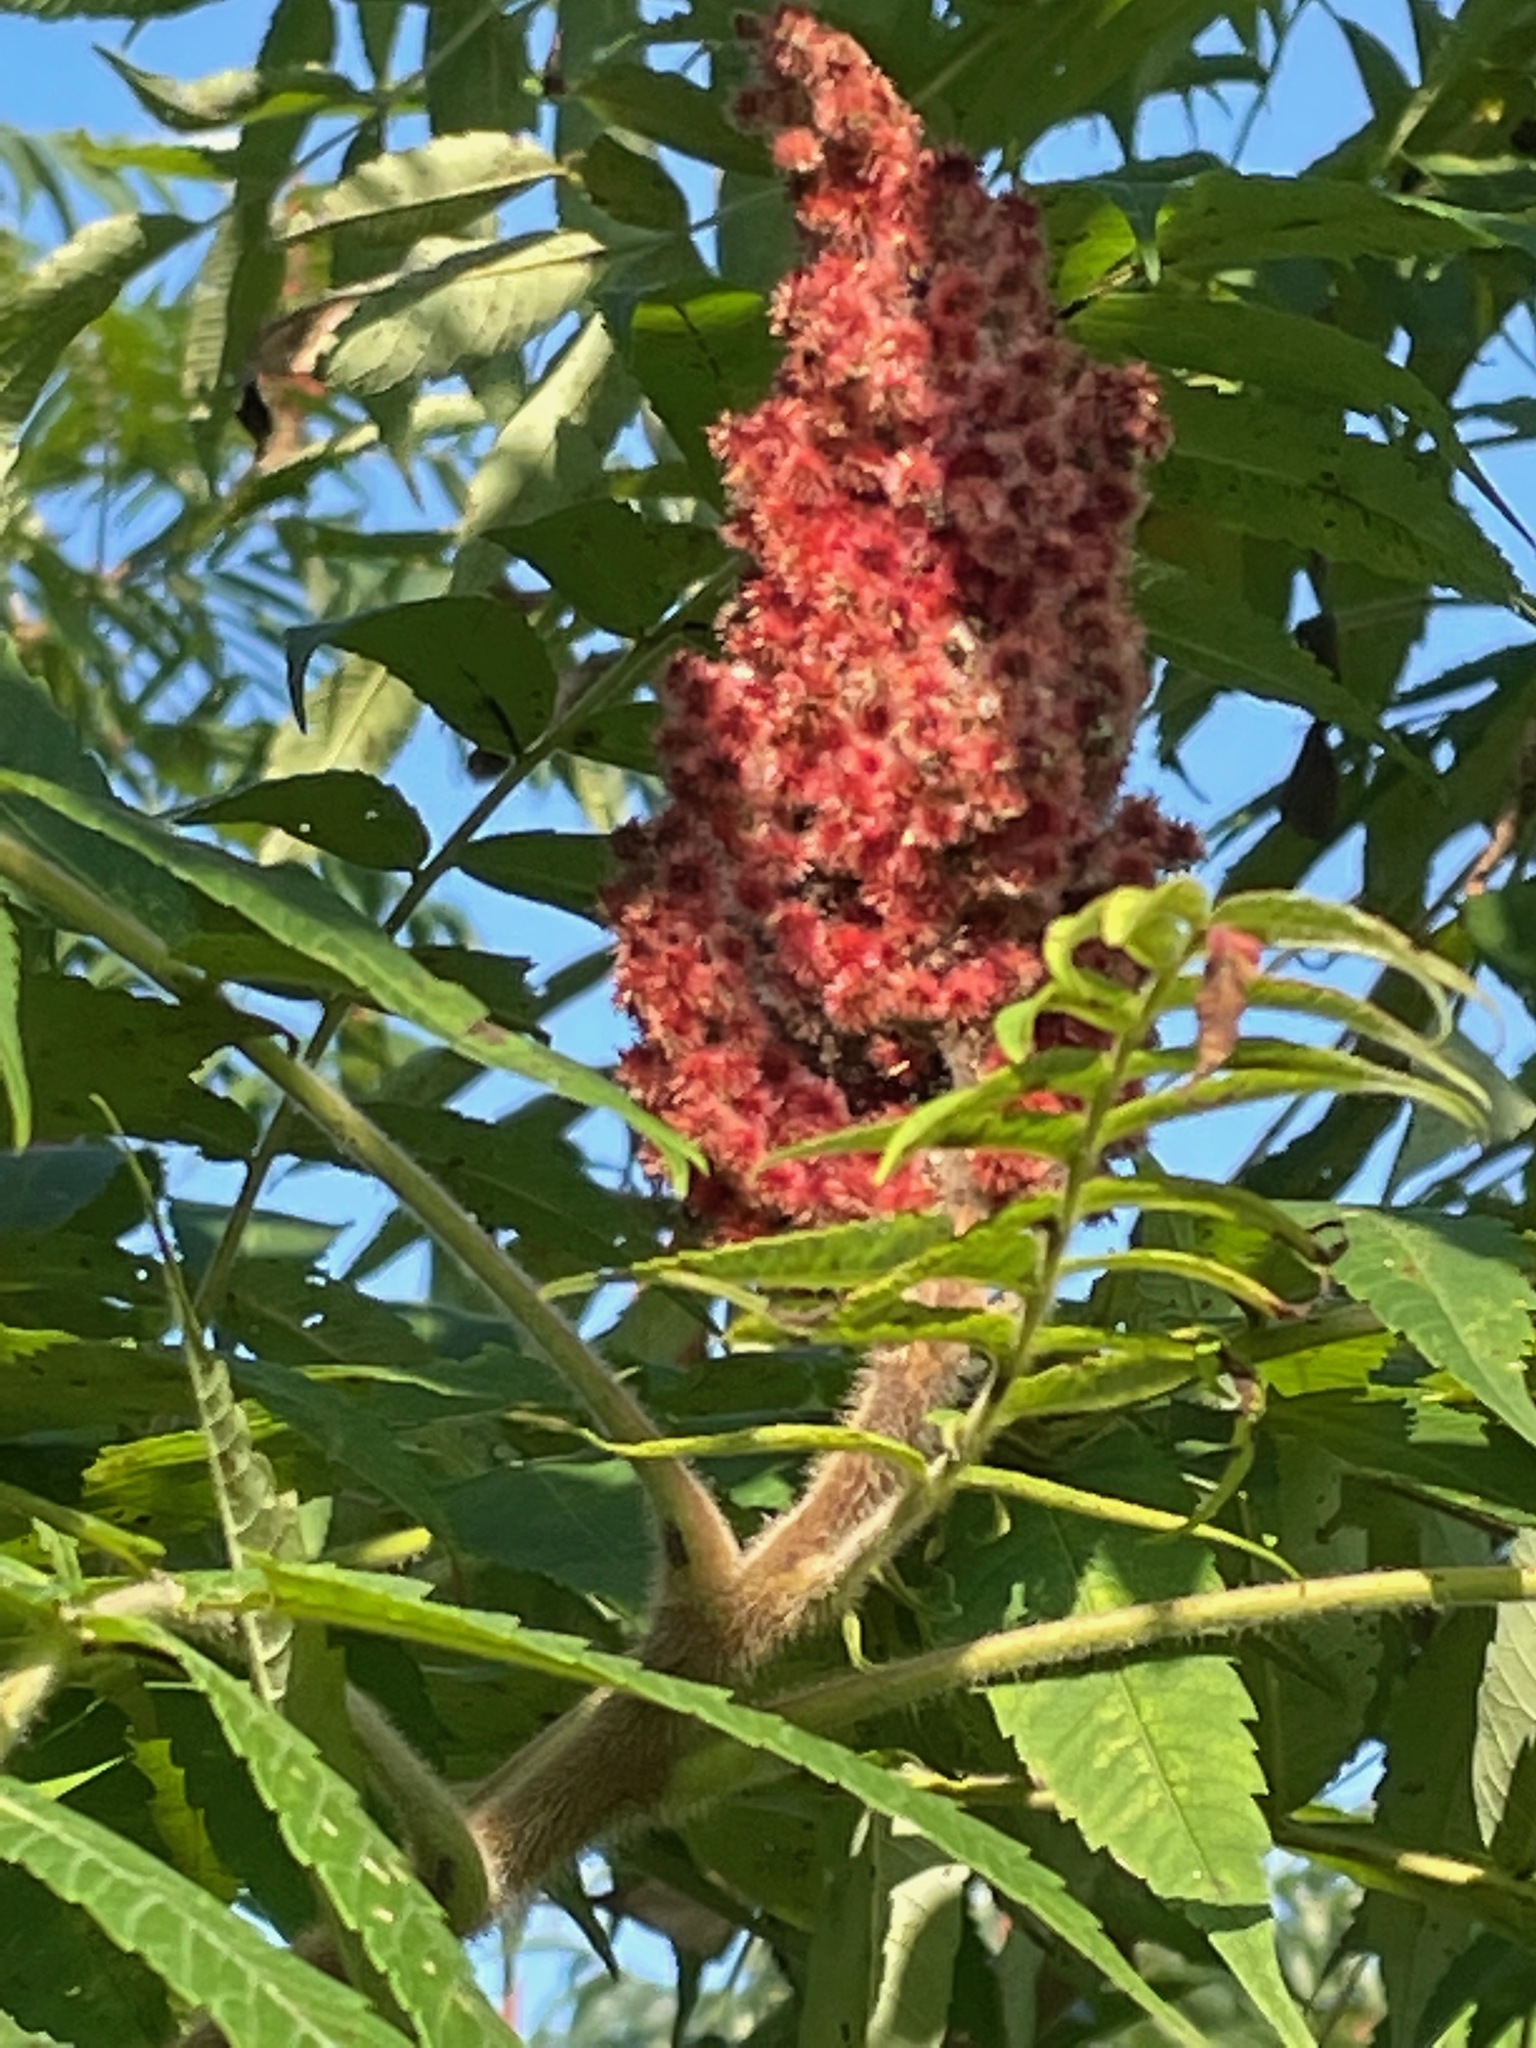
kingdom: Plantae
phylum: Tracheophyta
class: Magnoliopsida
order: Sapindales
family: Anacardiaceae
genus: Rhus
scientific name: Rhus typhina
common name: Staghorn sumac
